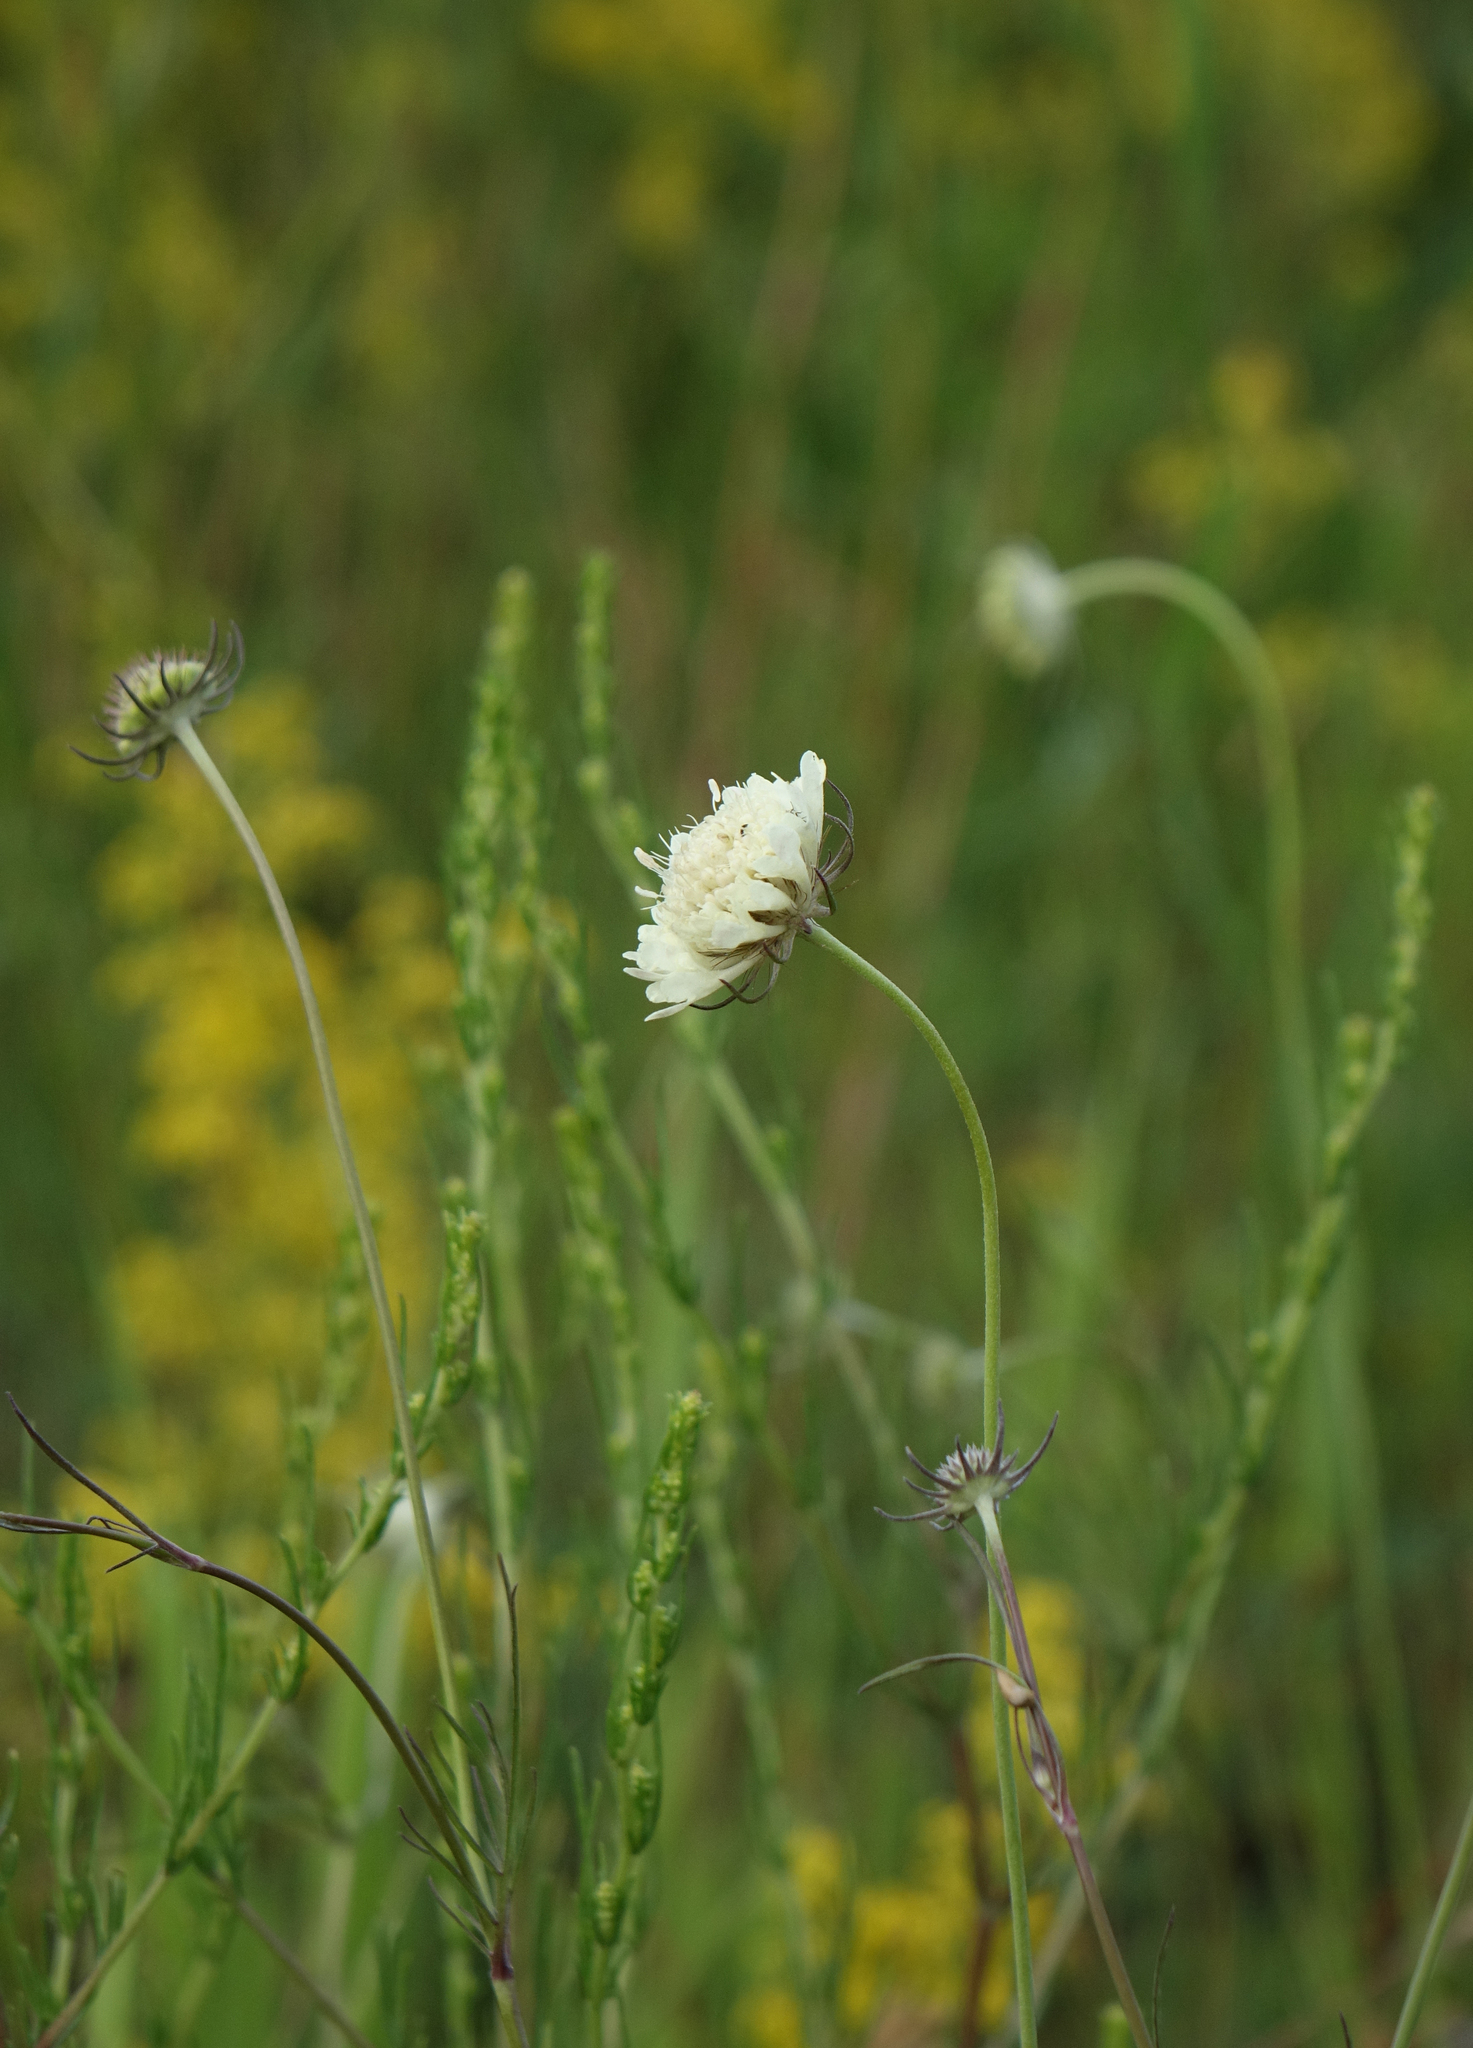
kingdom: Plantae
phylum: Tracheophyta
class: Magnoliopsida
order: Dipsacales
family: Caprifoliaceae
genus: Scabiosa
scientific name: Scabiosa ochroleuca
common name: Cream pincushions
